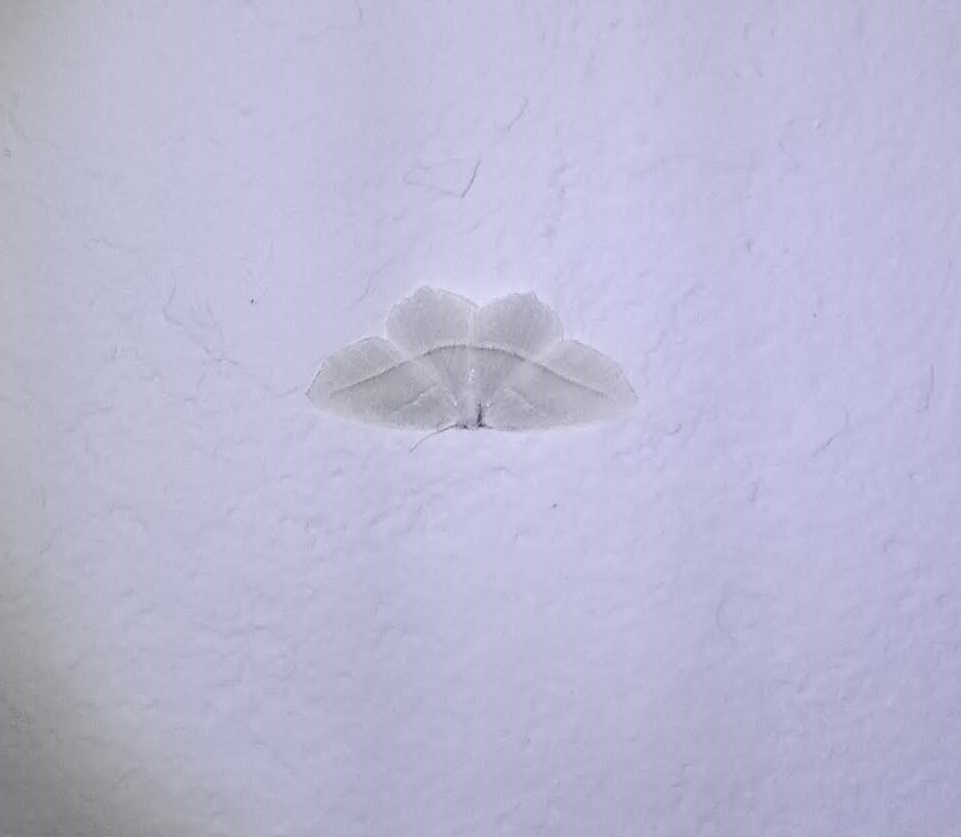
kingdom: Animalia
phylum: Arthropoda
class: Insecta
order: Lepidoptera
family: Geometridae
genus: Campaea
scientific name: Campaea perlata
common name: Fringed looper
